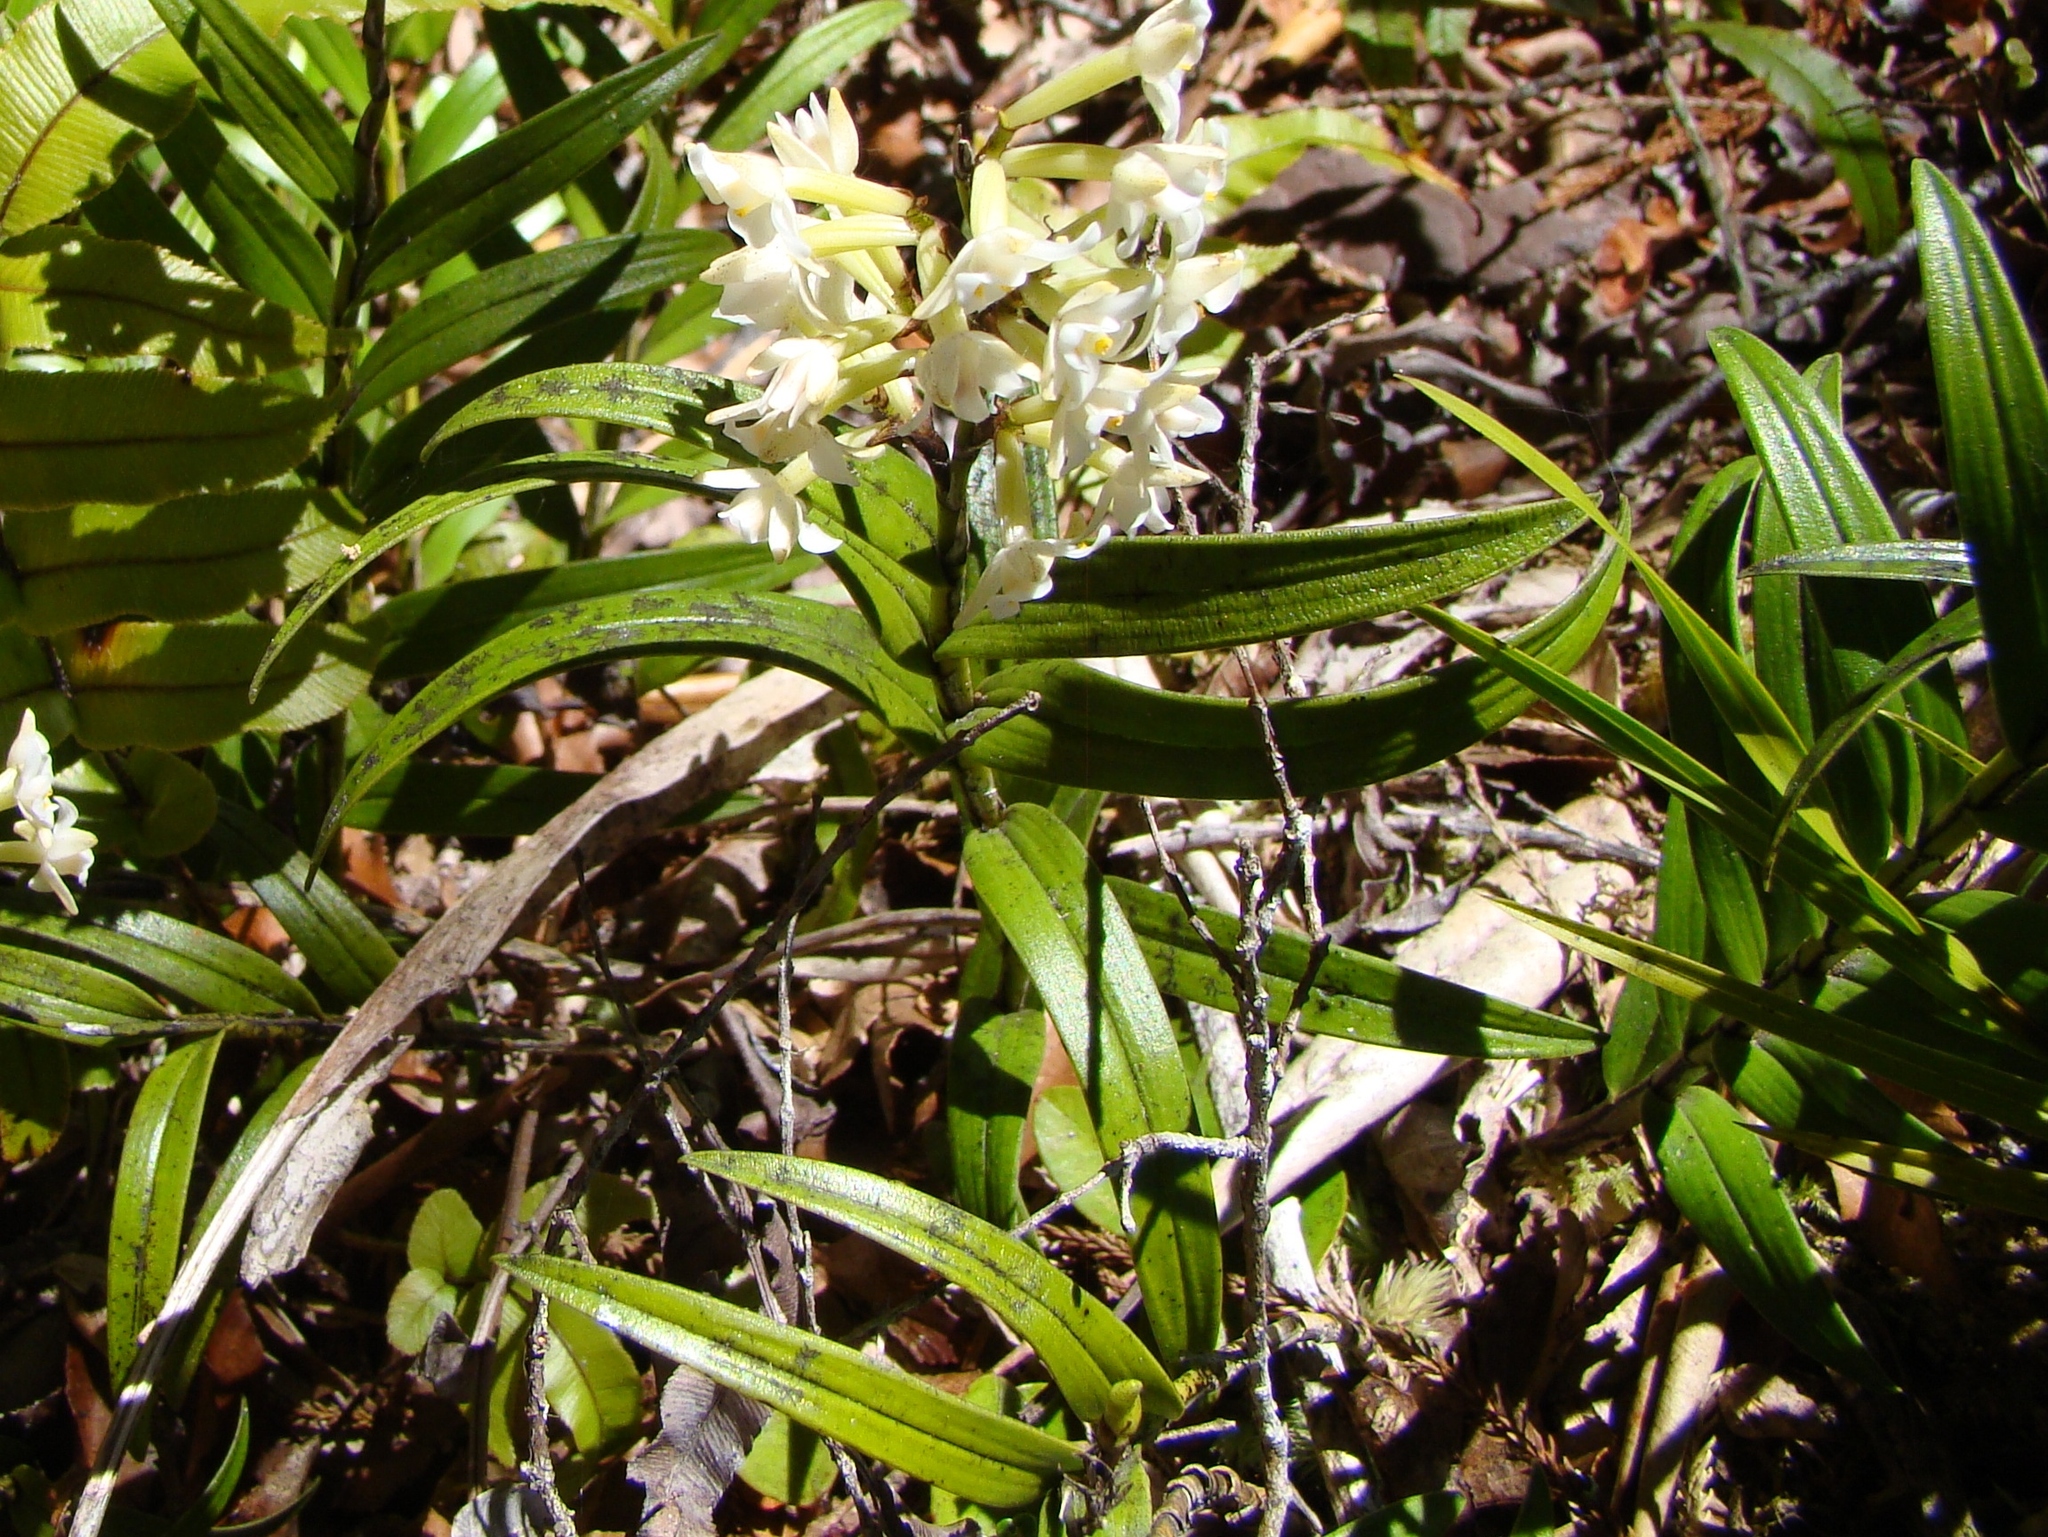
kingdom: Plantae
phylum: Tracheophyta
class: Liliopsida
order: Asparagales
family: Orchidaceae
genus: Earina
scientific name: Earina autumnalis
